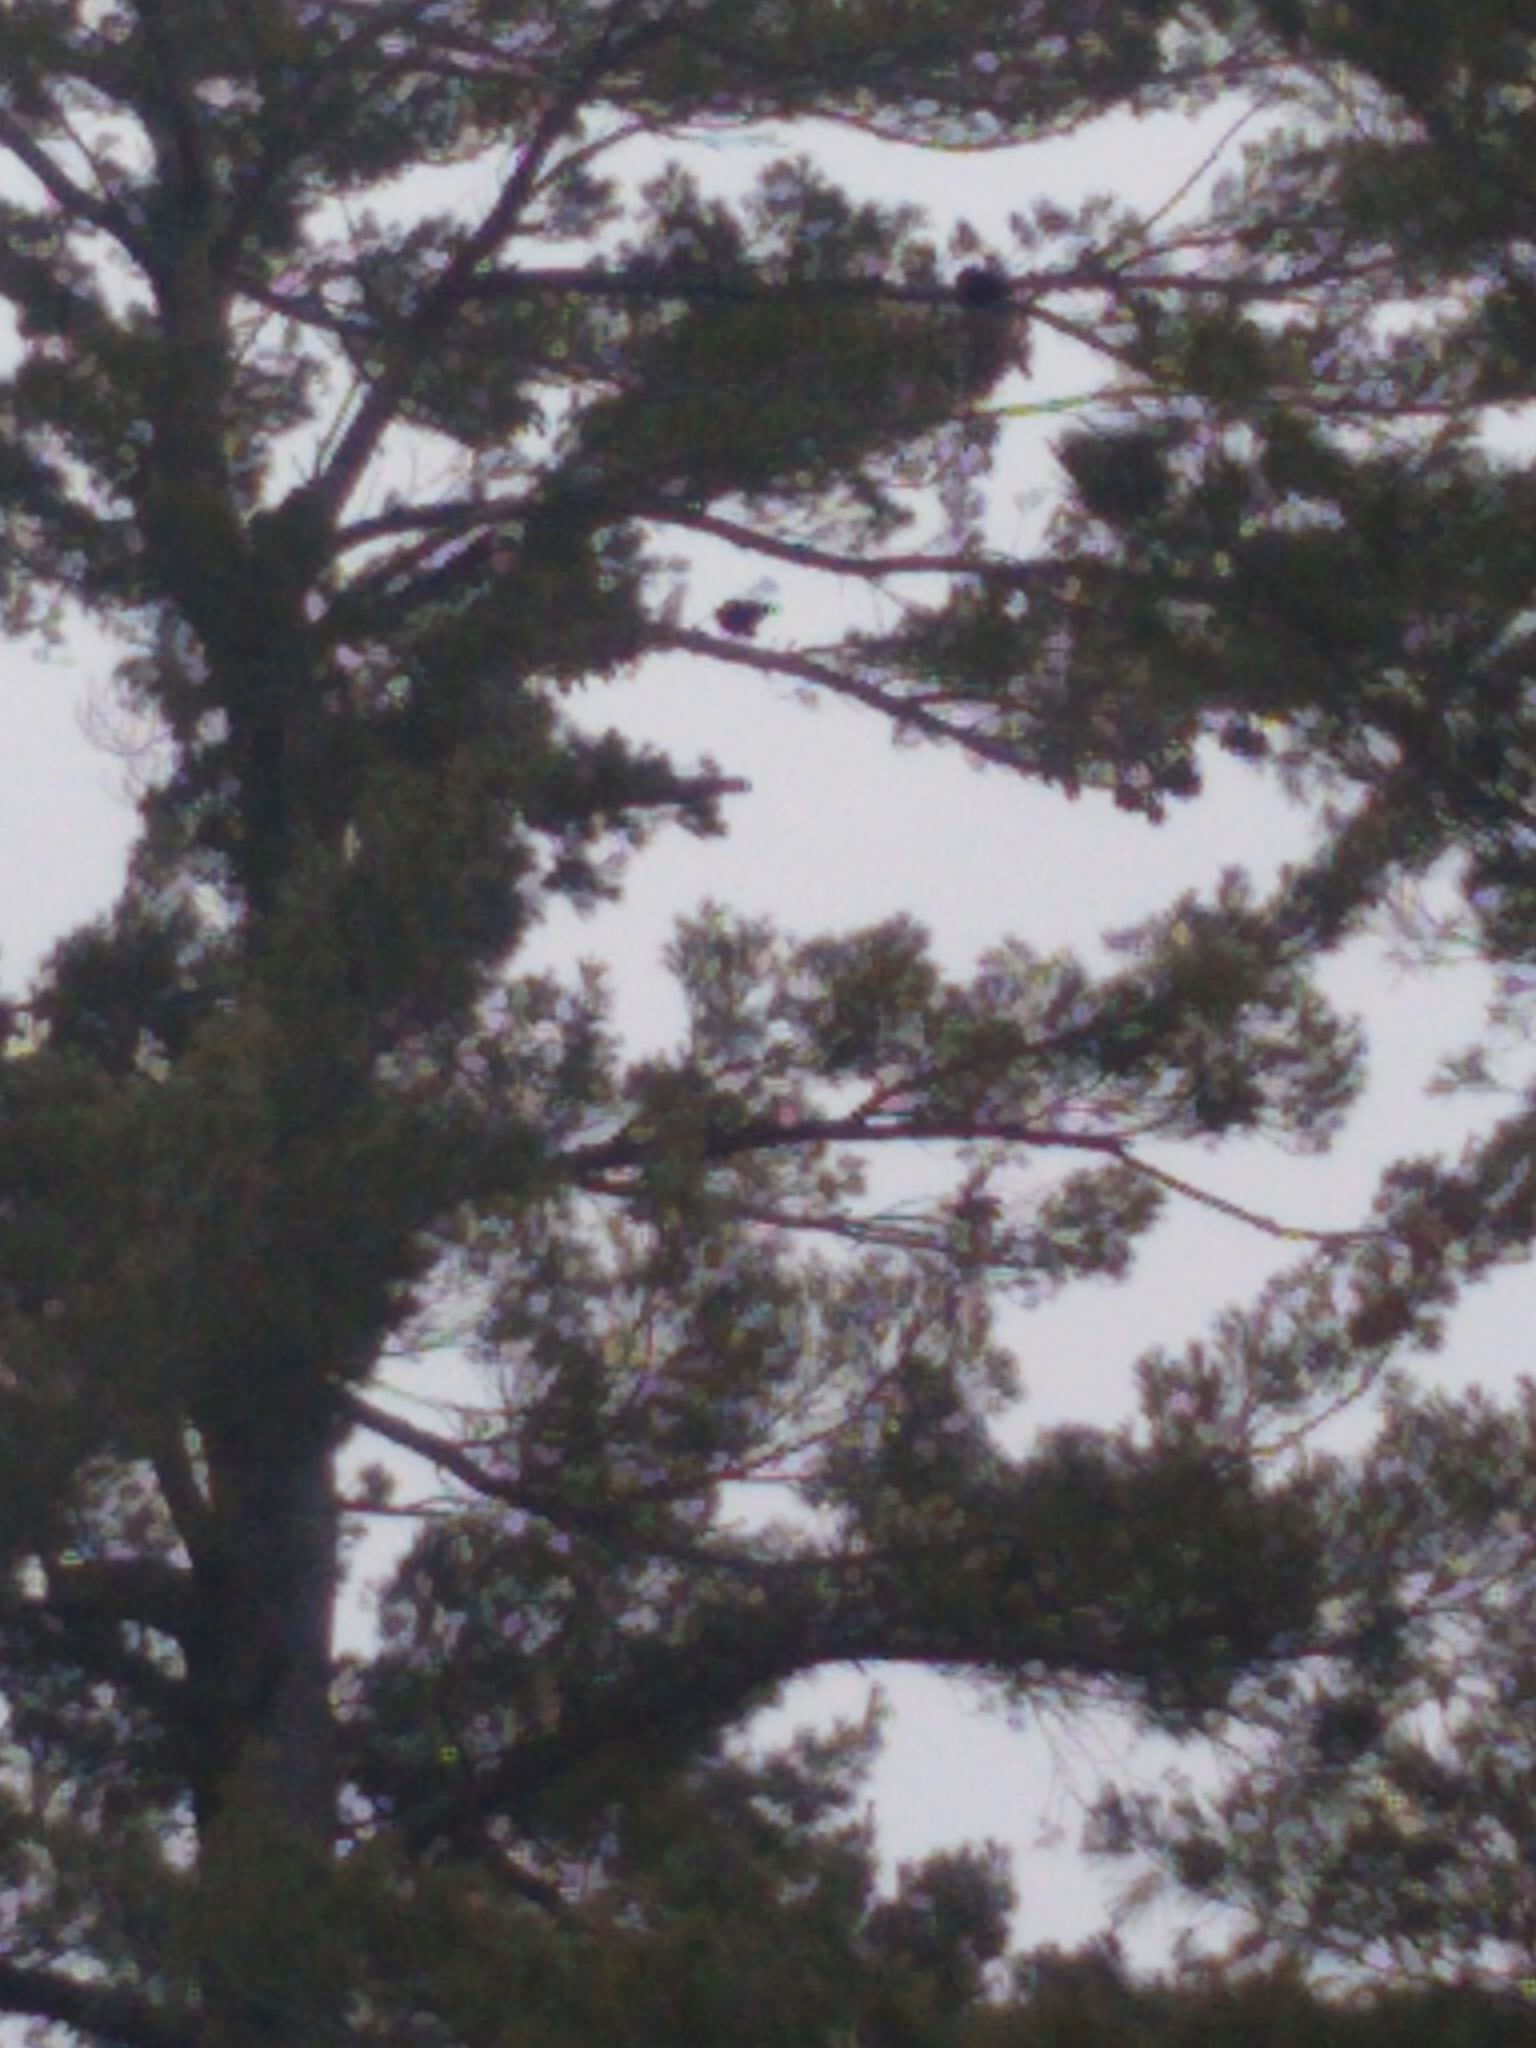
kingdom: Animalia
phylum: Chordata
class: Aves
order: Passeriformes
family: Corvidae
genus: Corvus
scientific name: Corvus brachyrhynchos
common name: American crow
